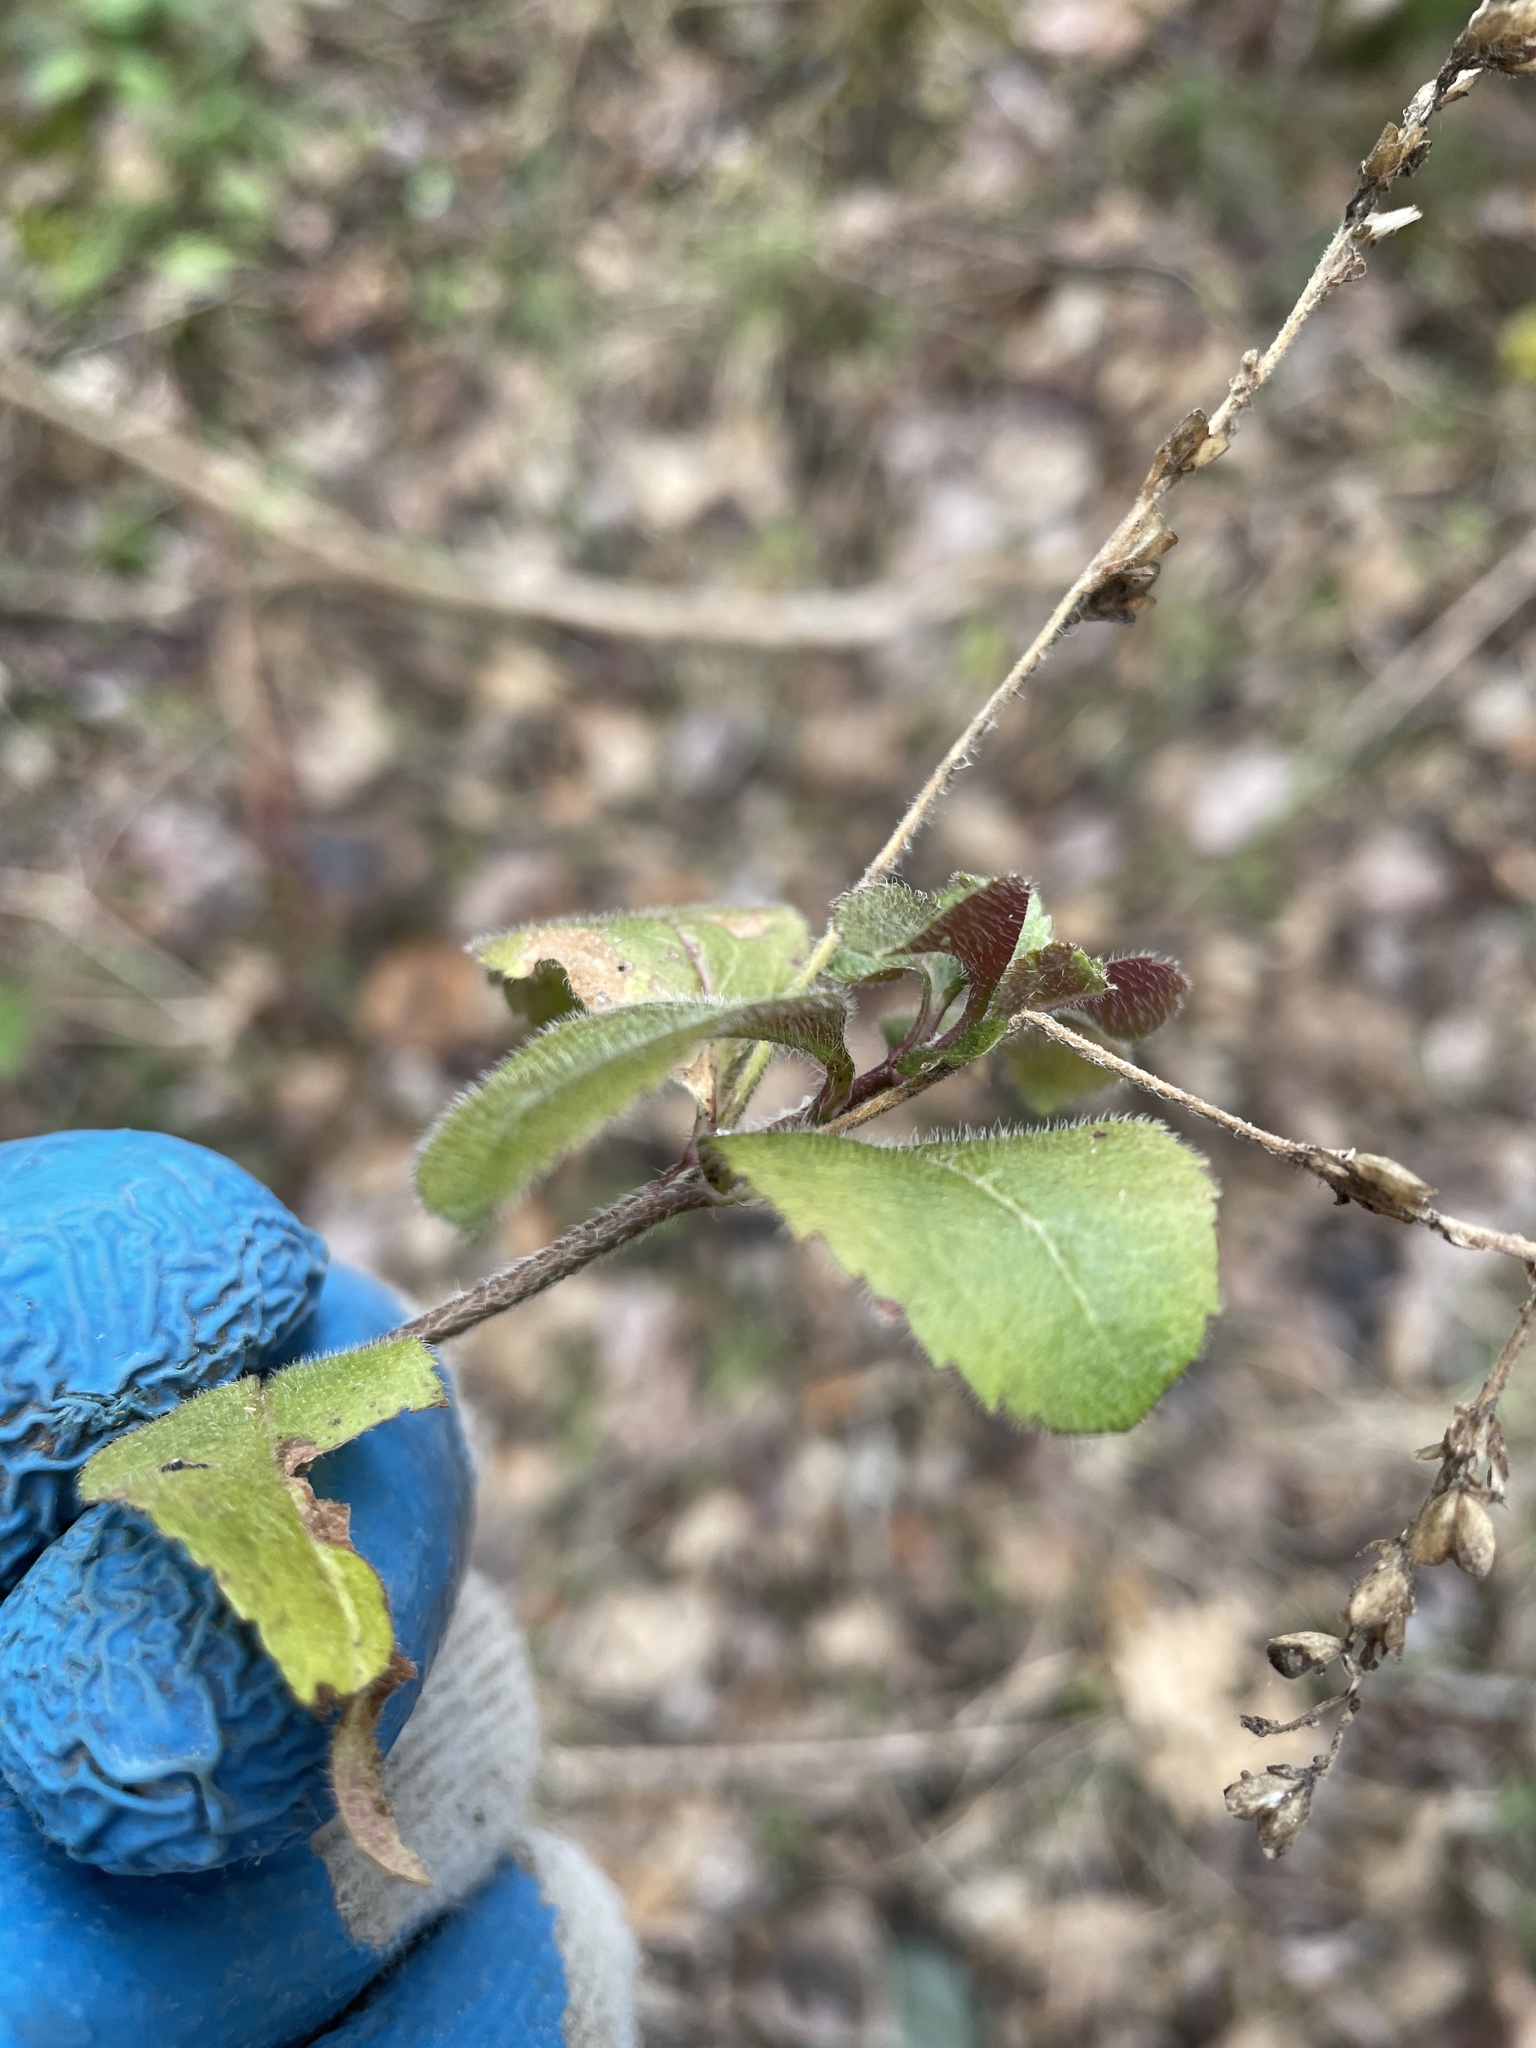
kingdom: Plantae
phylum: Tracheophyta
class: Magnoliopsida
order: Lamiales
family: Plantaginaceae
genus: Veronica
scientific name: Veronica officinalis
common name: Common speedwell
